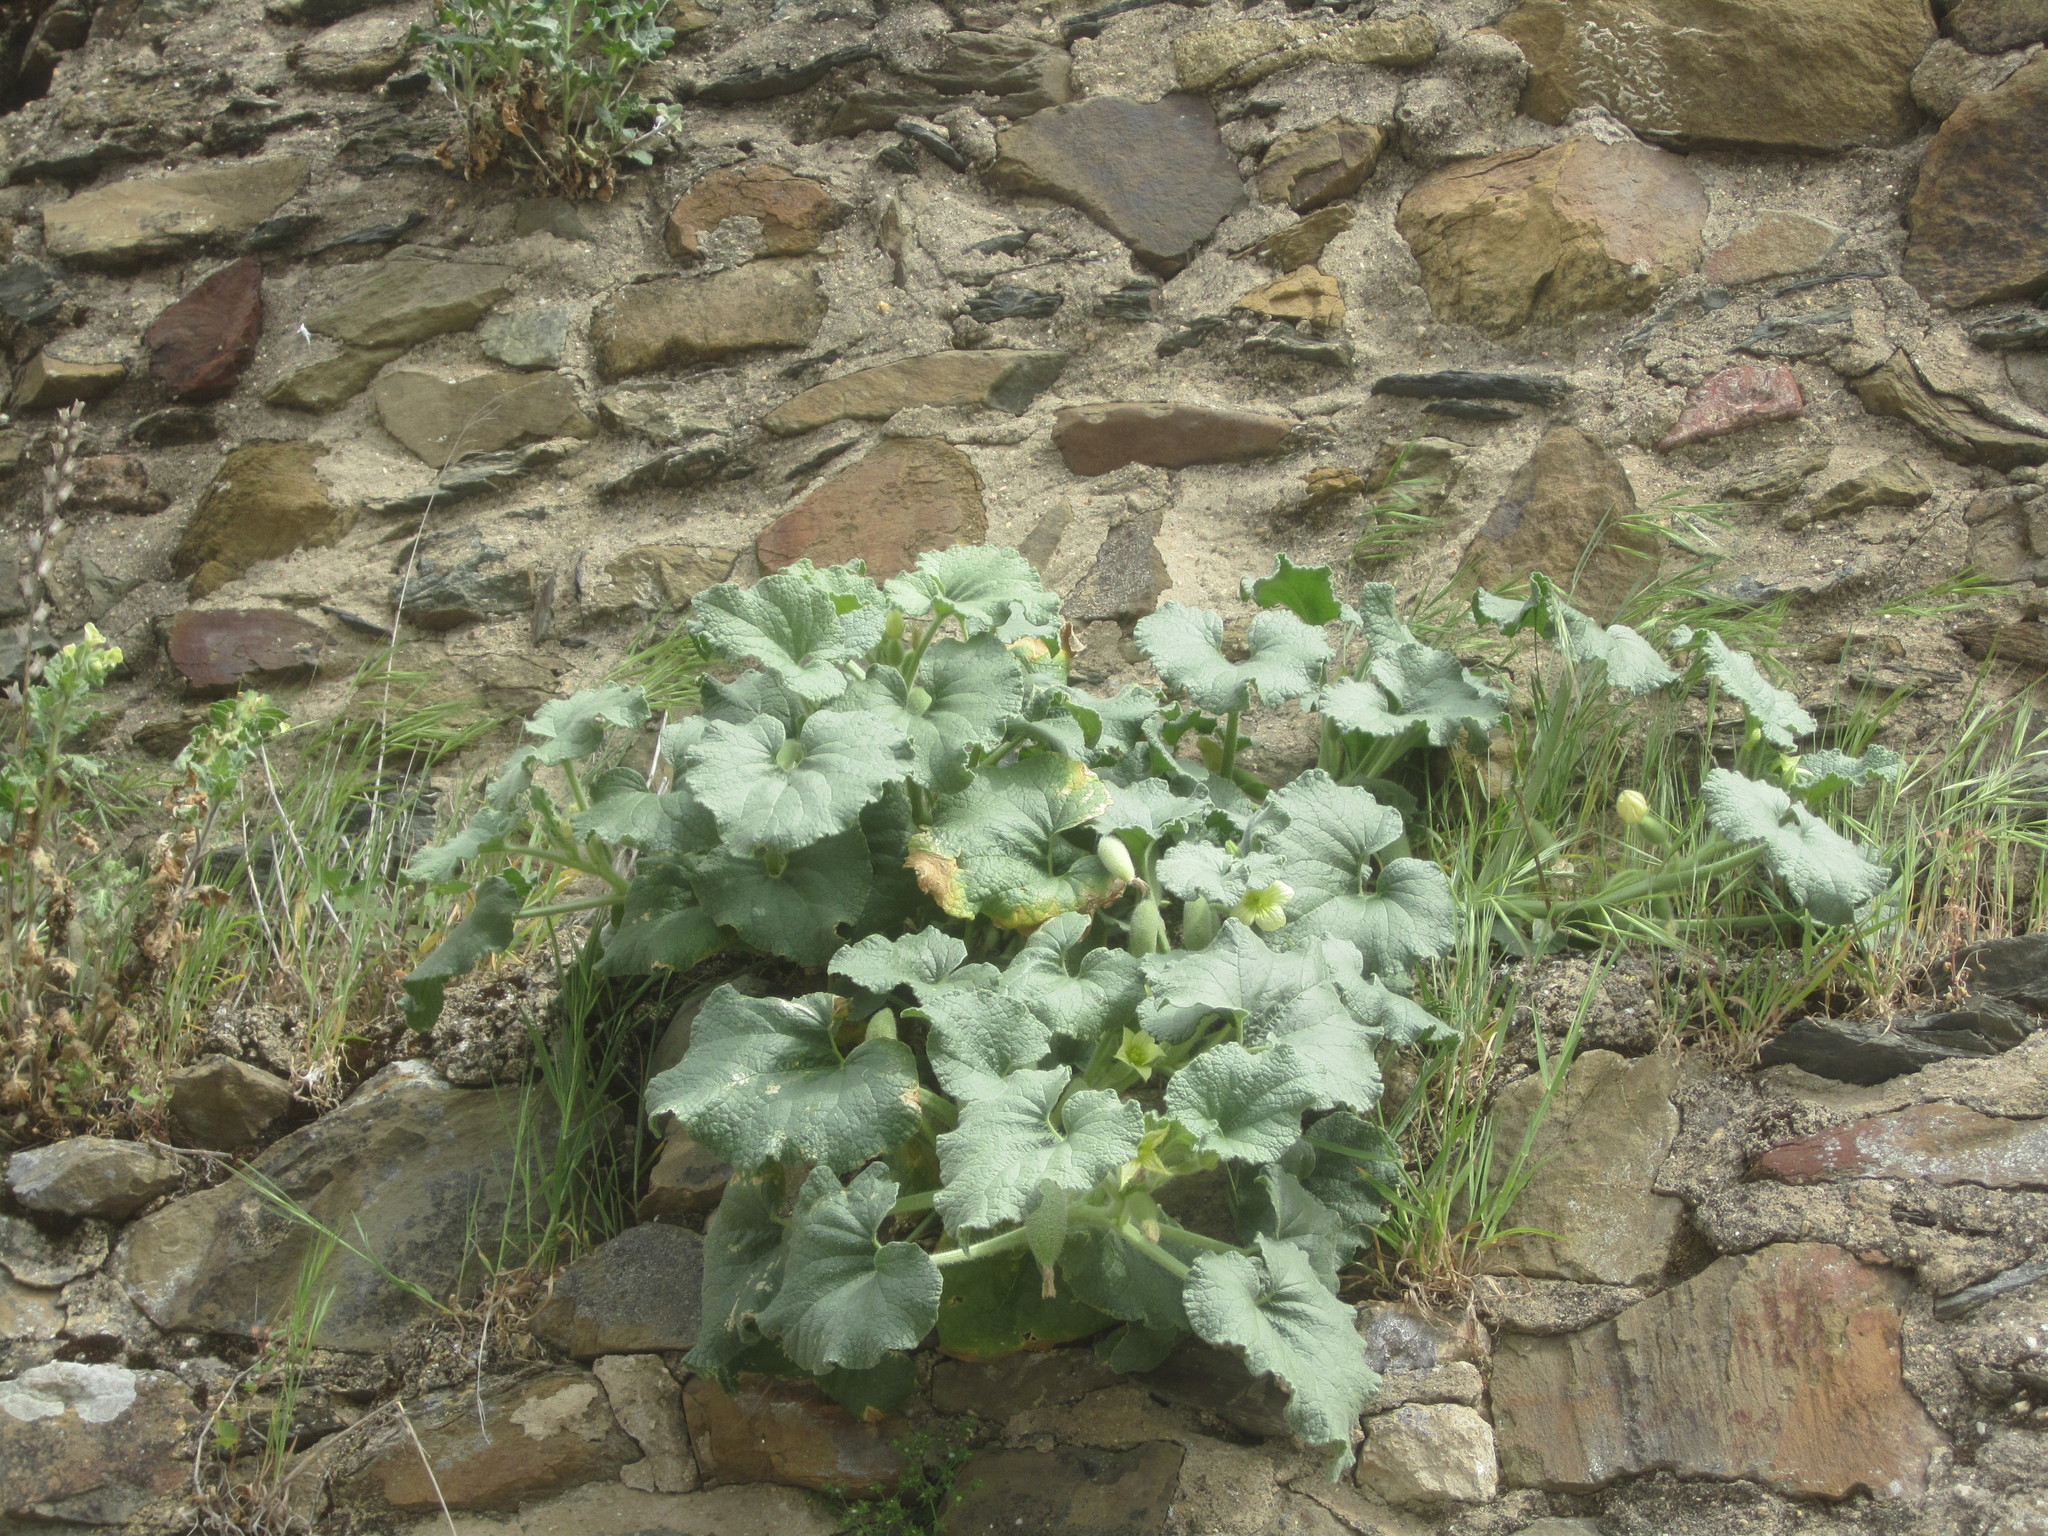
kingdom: Plantae
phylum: Tracheophyta
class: Magnoliopsida
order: Cucurbitales
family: Cucurbitaceae
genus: Ecballium
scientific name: Ecballium elaterium
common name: Squirting cucumber
